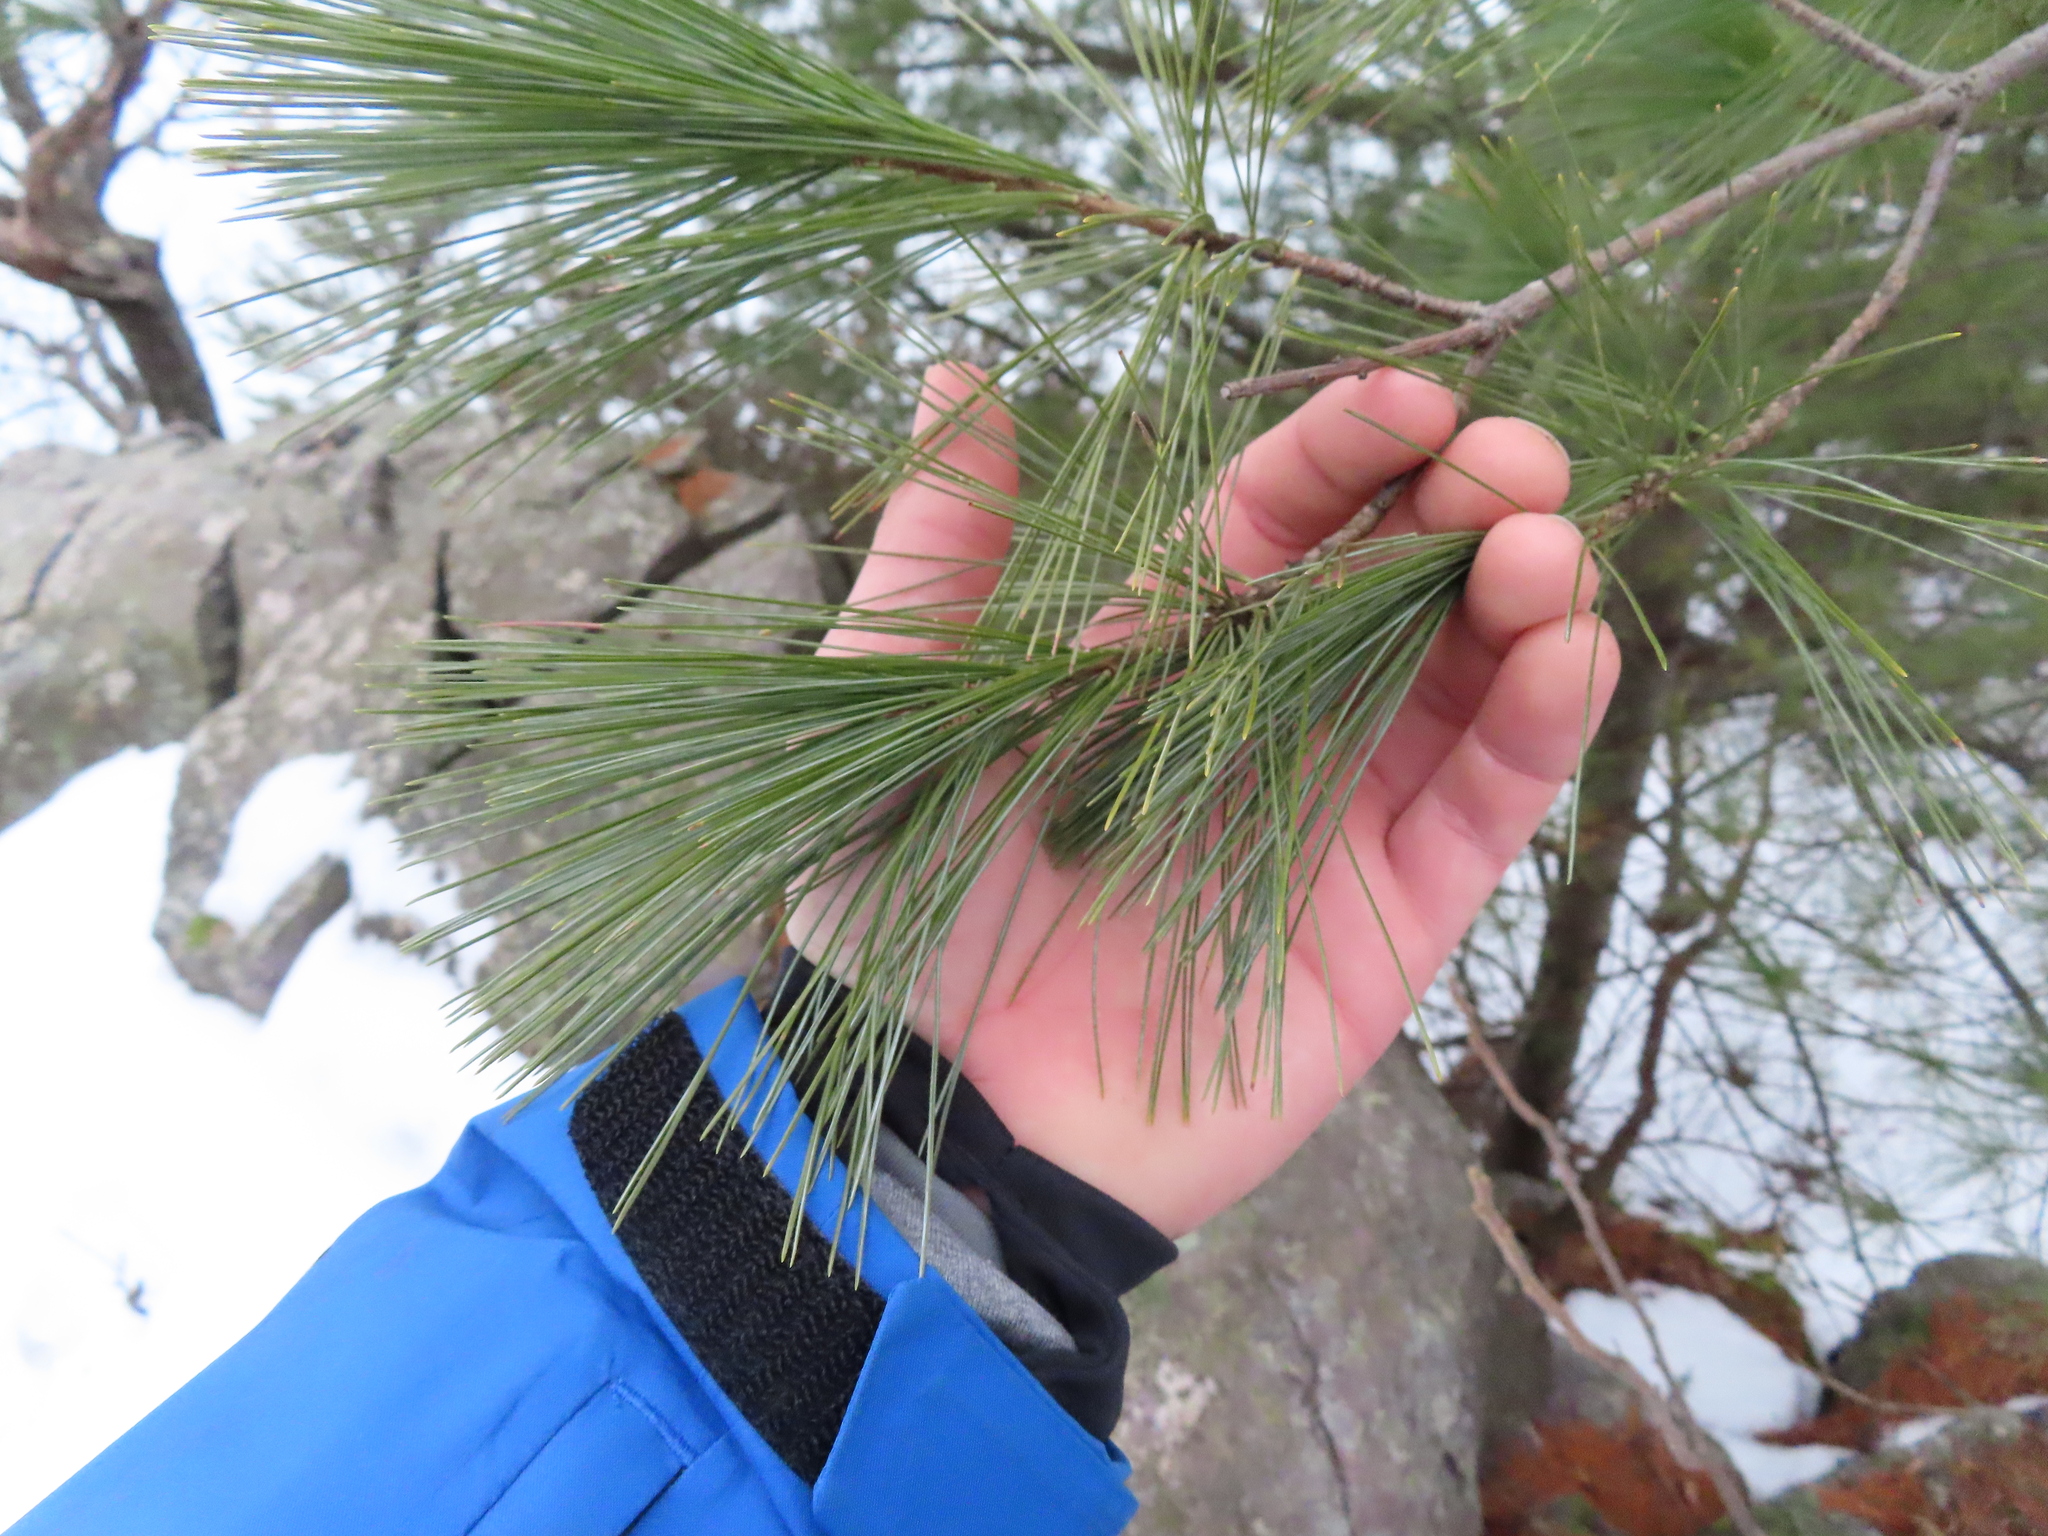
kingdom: Plantae
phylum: Tracheophyta
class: Pinopsida
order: Pinales
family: Pinaceae
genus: Pinus
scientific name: Pinus strobus
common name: Weymouth pine
